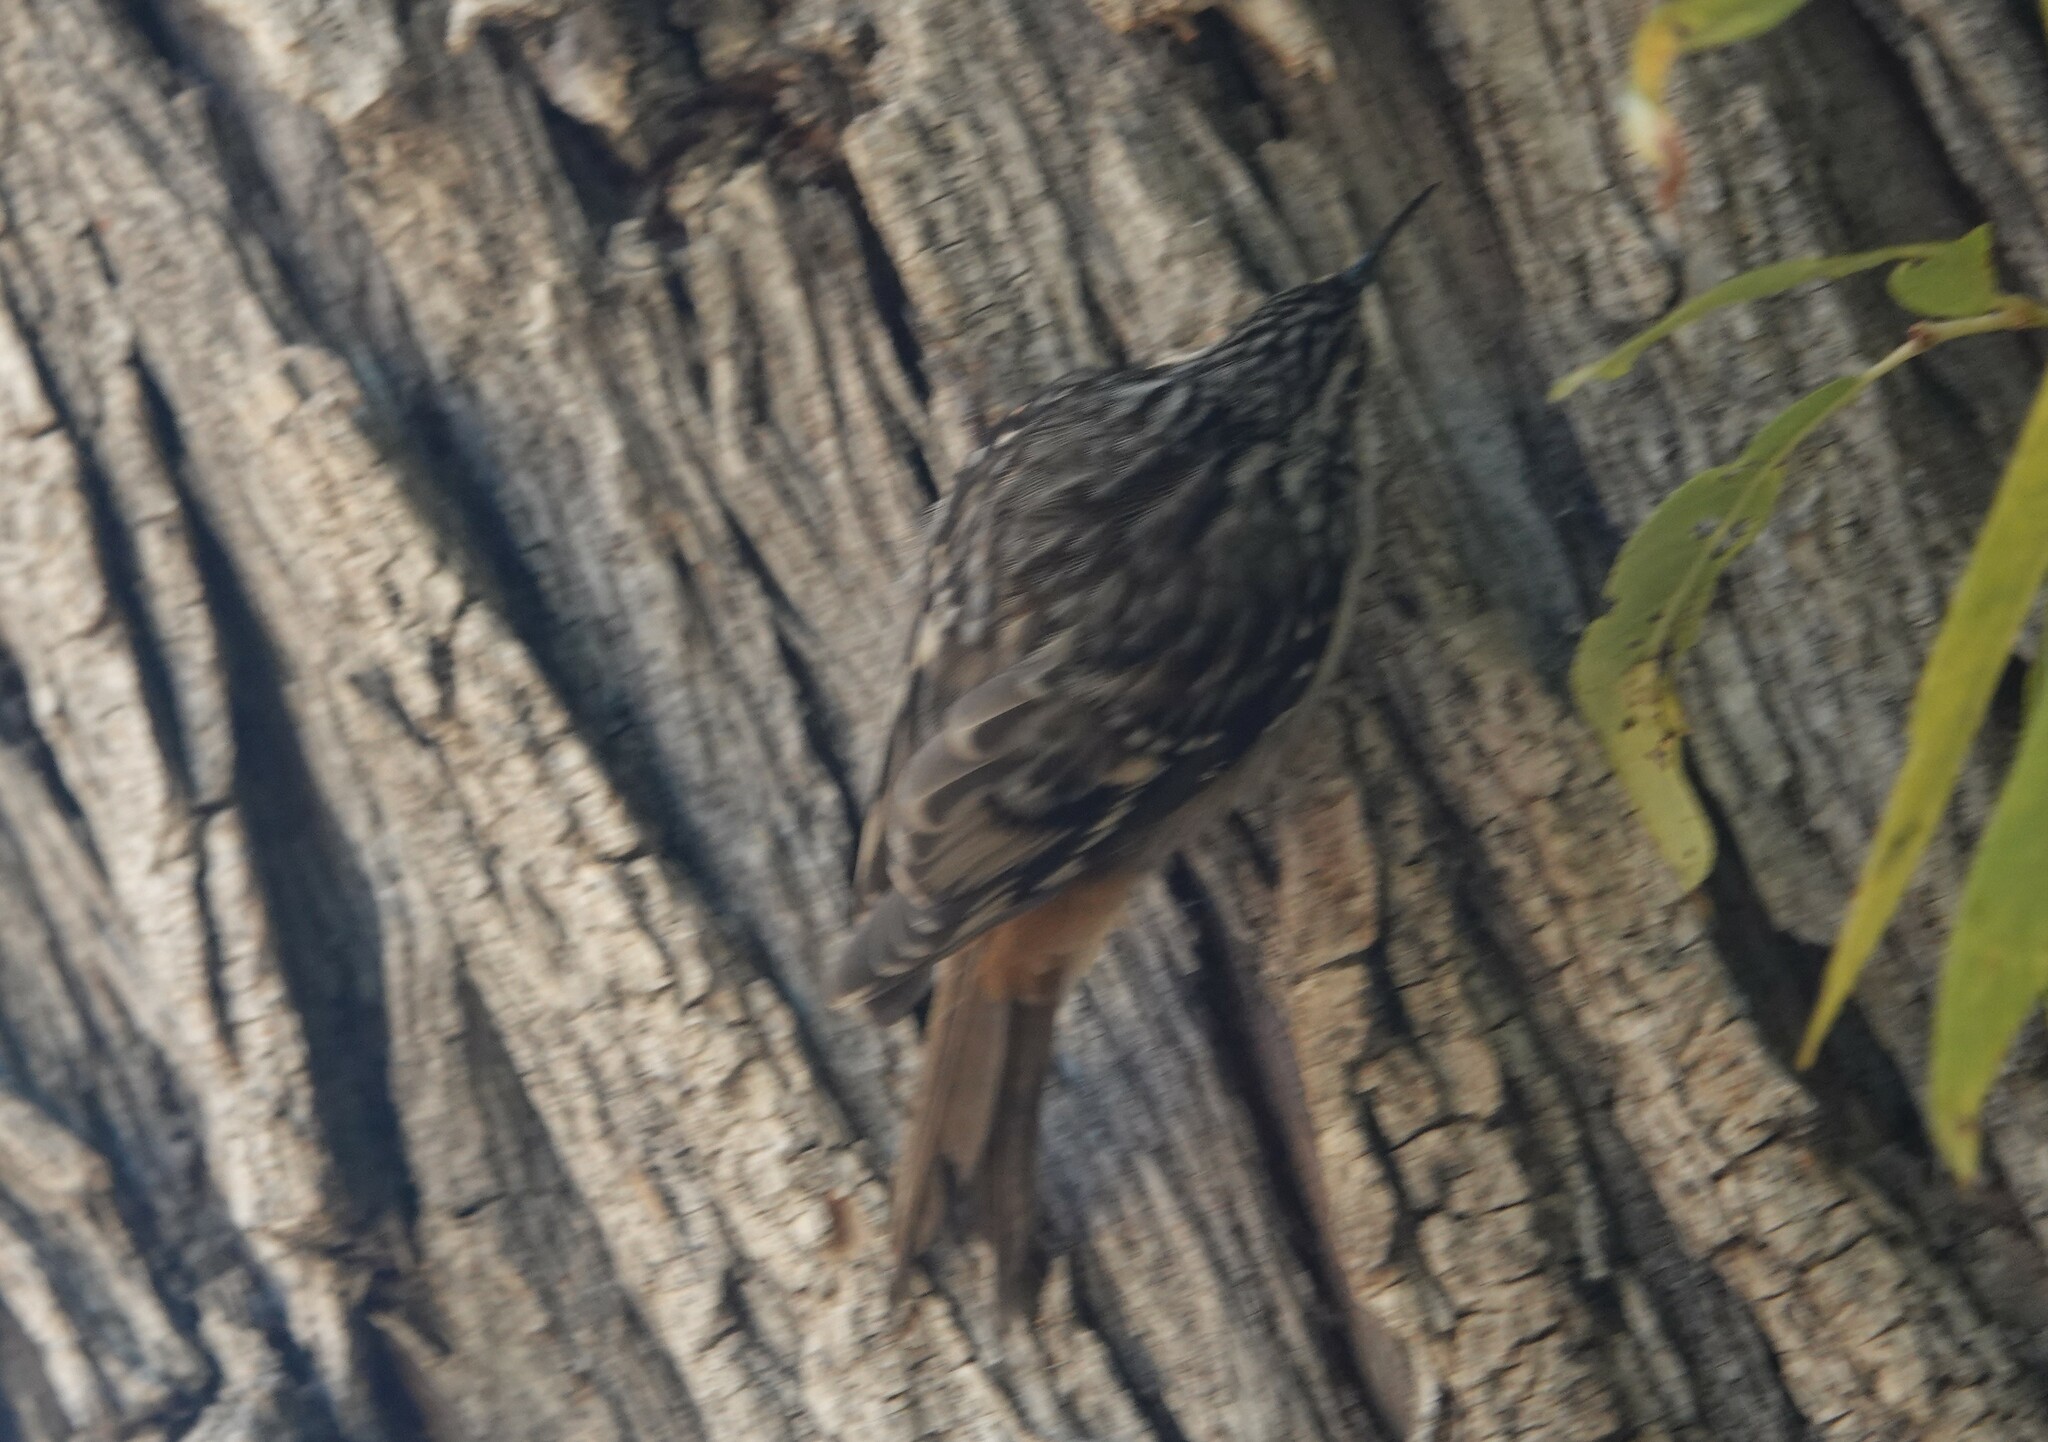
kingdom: Animalia
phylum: Chordata
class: Aves
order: Passeriformes
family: Certhiidae
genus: Certhia
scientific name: Certhia americana
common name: Brown creeper
